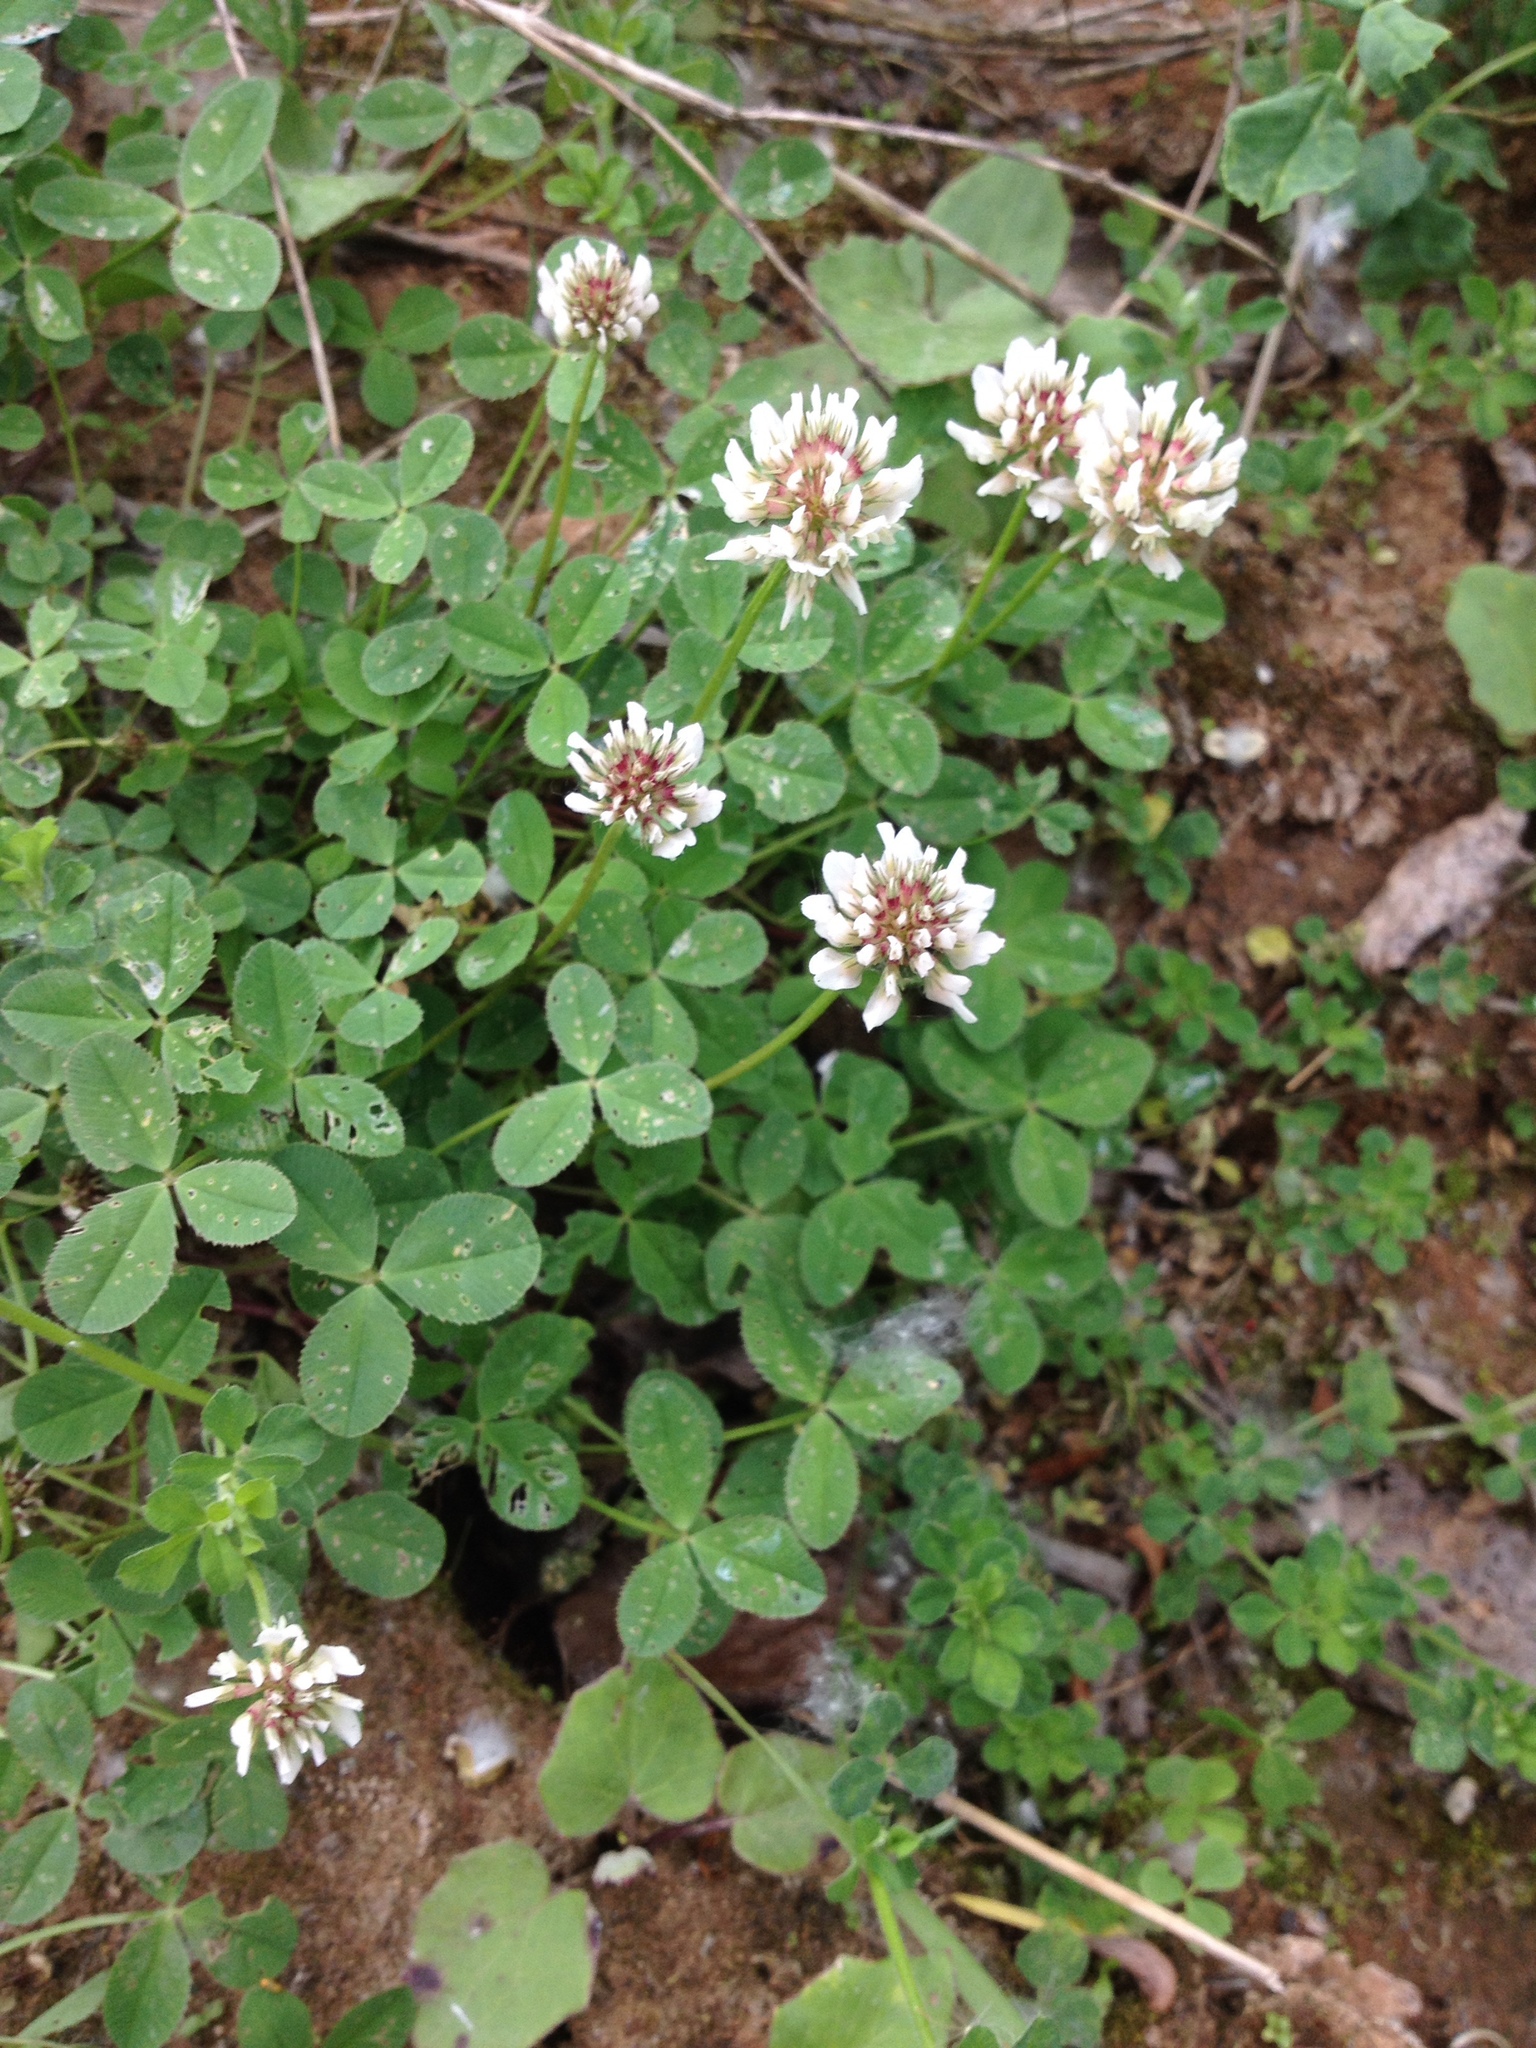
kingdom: Plantae
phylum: Tracheophyta
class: Magnoliopsida
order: Fabales
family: Fabaceae
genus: Trifolium
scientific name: Trifolium repens
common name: White clover
